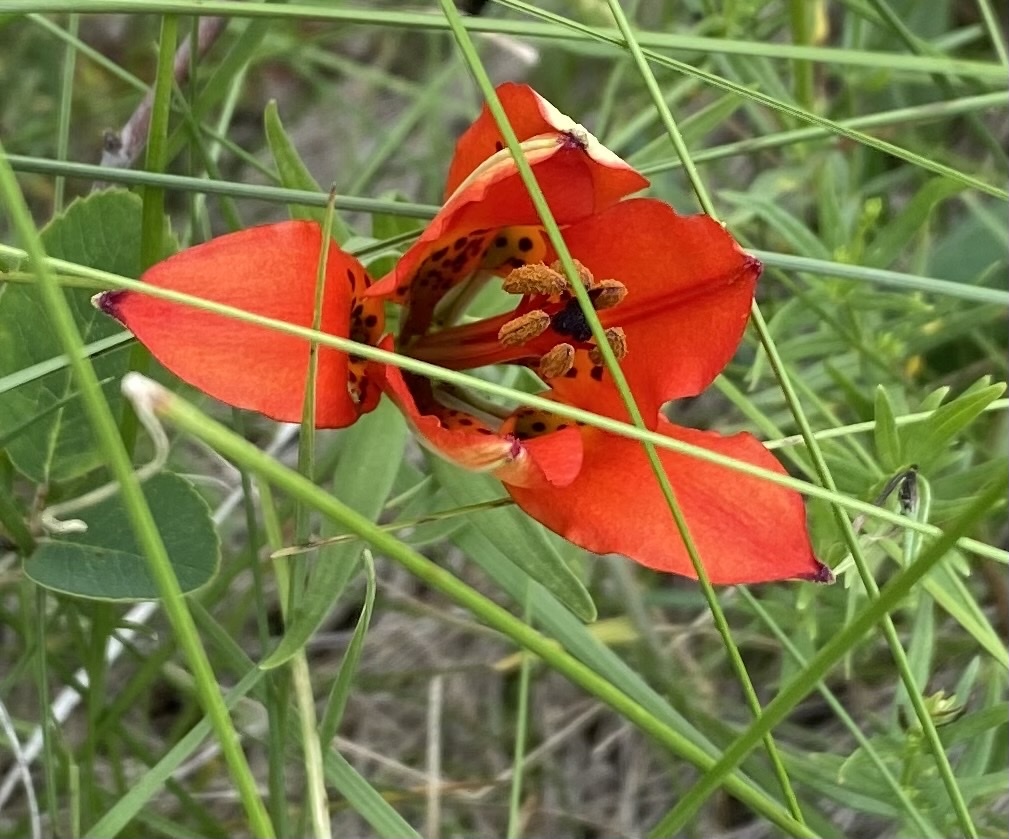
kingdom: Plantae
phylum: Tracheophyta
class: Liliopsida
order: Liliales
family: Liliaceae
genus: Lilium
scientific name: Lilium philadelphicum
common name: Red lily
